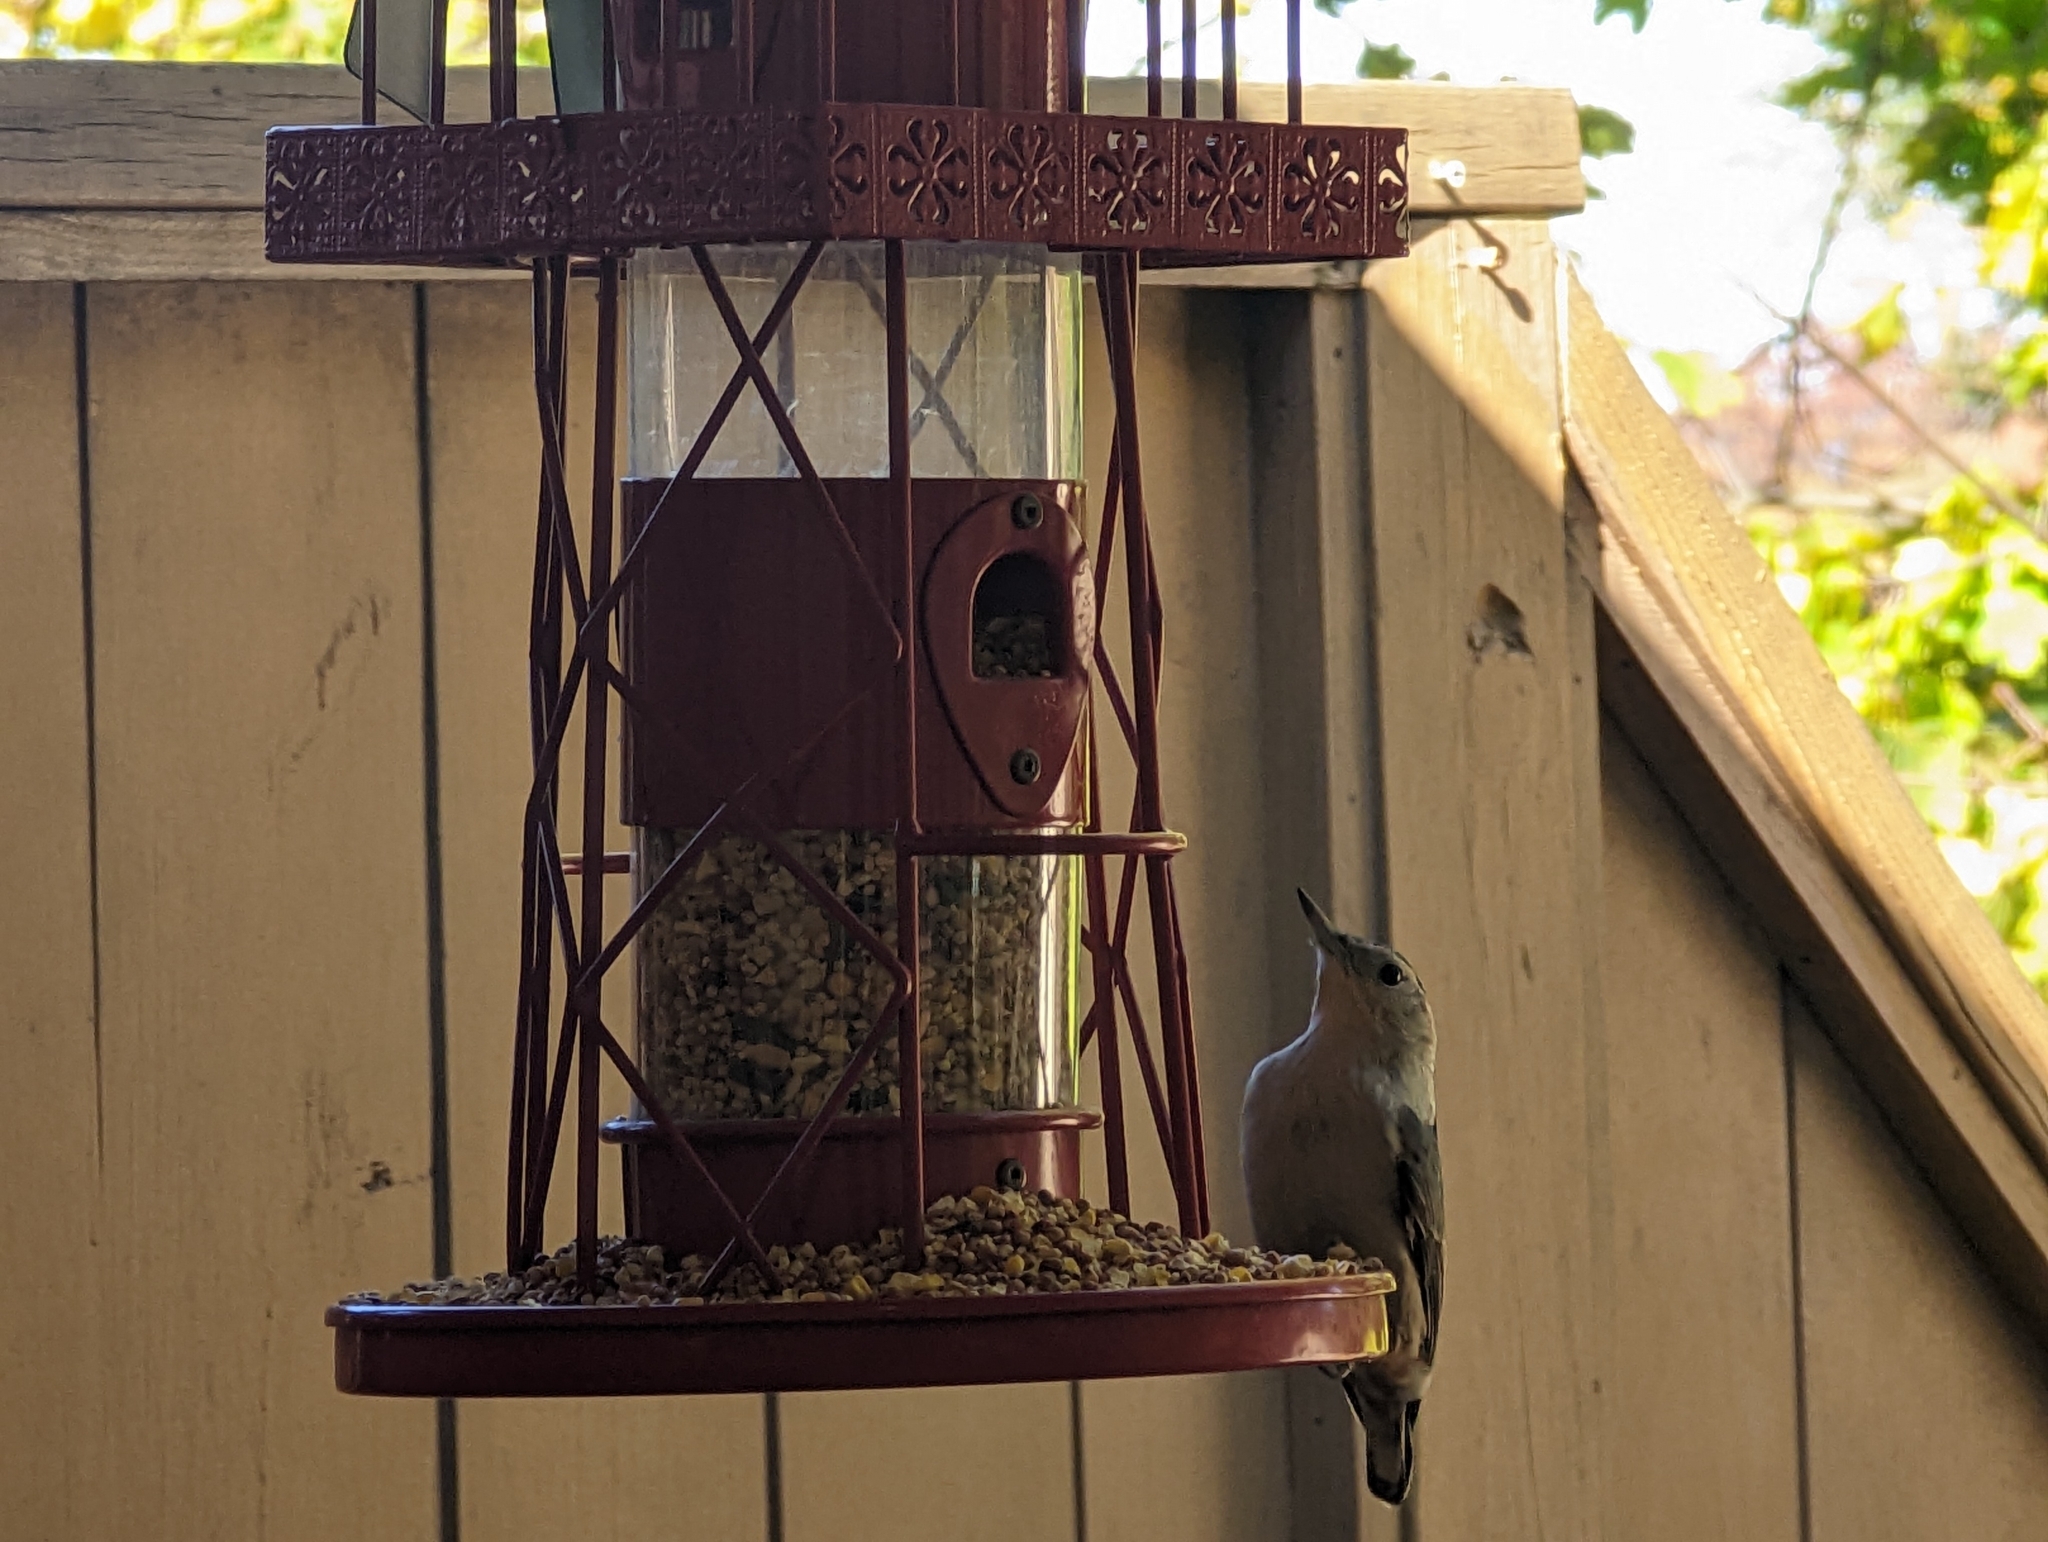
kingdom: Animalia
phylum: Chordata
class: Aves
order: Passeriformes
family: Sittidae
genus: Sitta
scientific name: Sitta carolinensis
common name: White-breasted nuthatch
